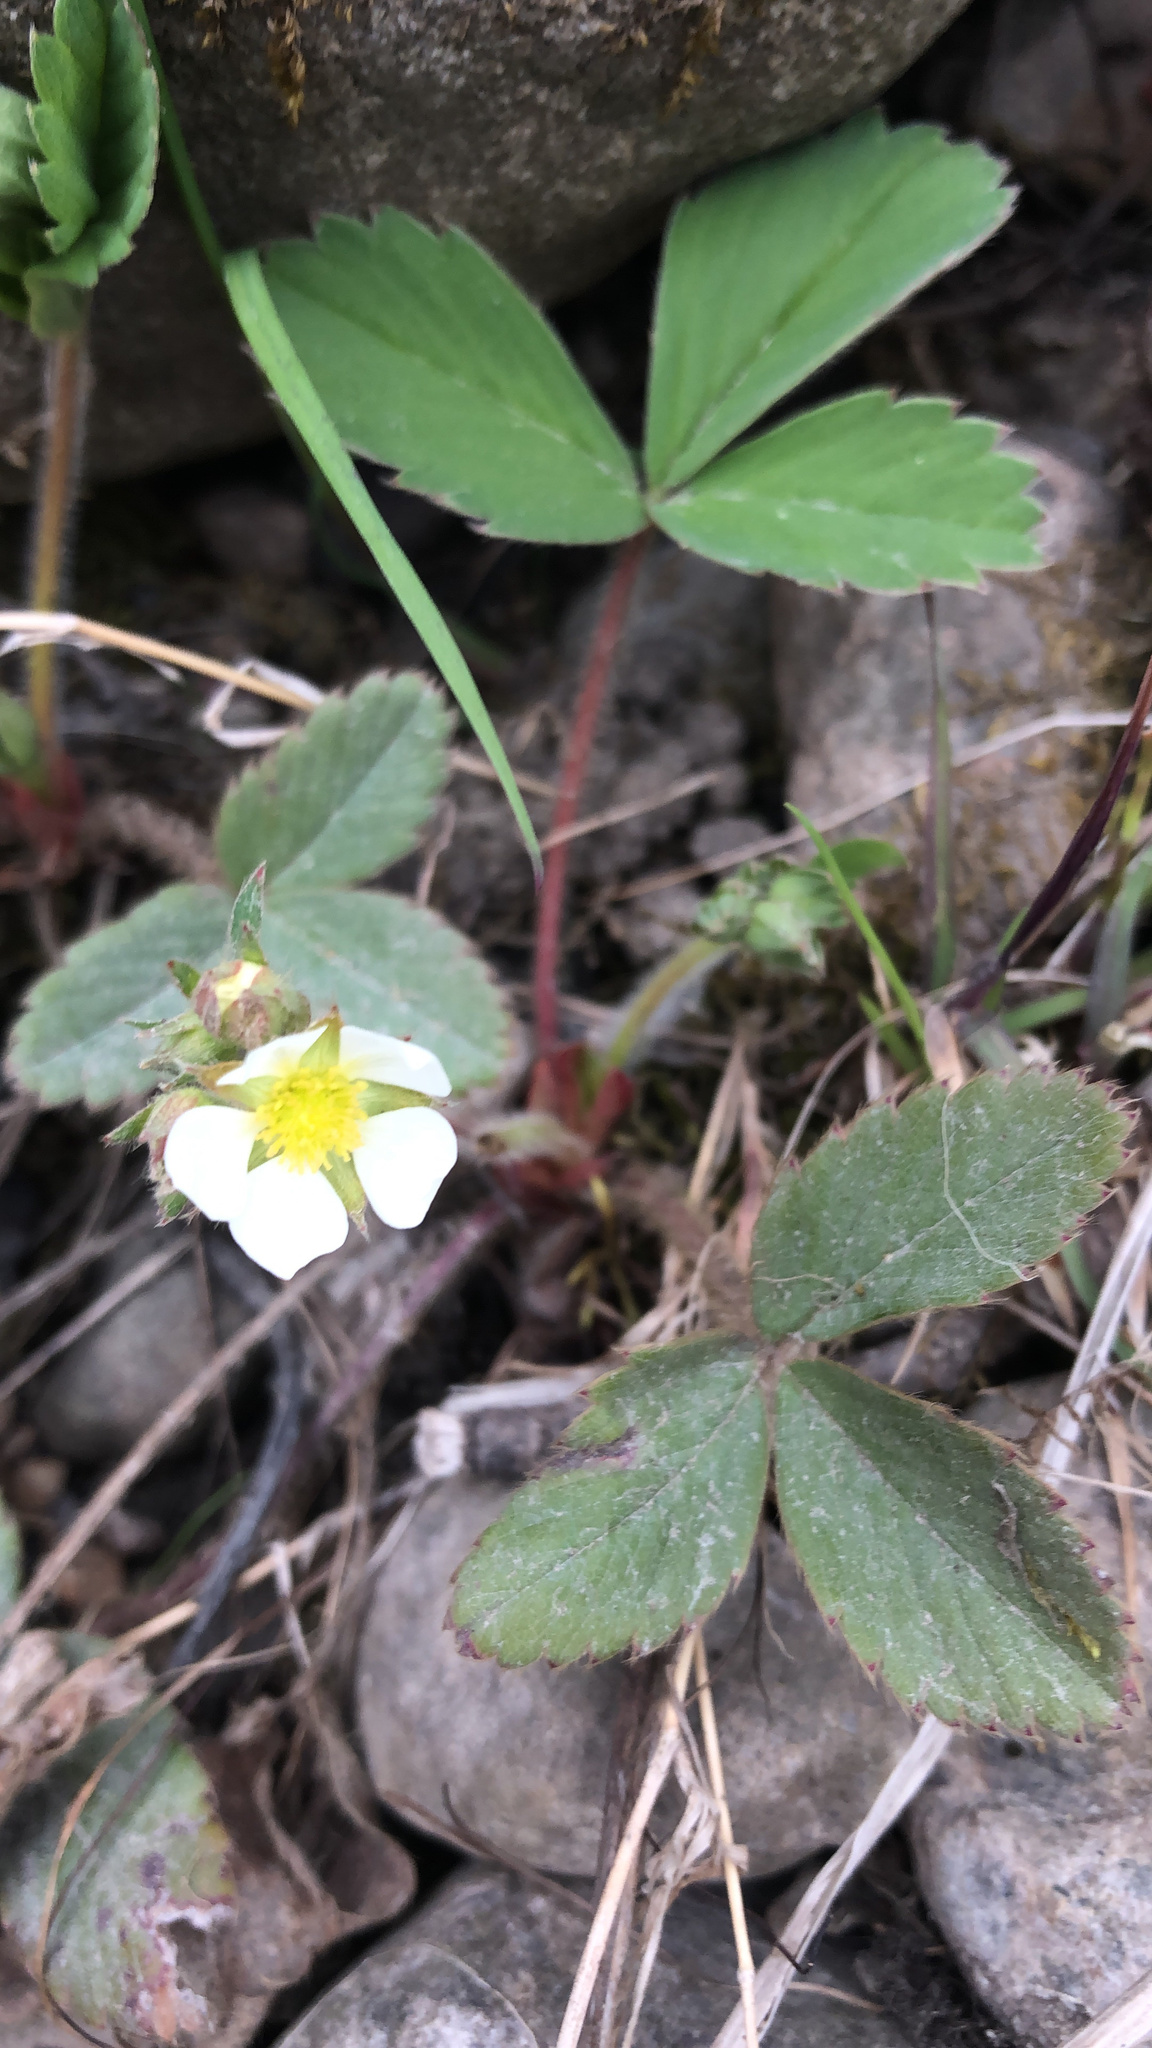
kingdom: Plantae
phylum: Tracheophyta
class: Magnoliopsida
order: Rosales
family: Rosaceae
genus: Fragaria
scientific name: Fragaria virginiana
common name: Thickleaved wild strawberry
